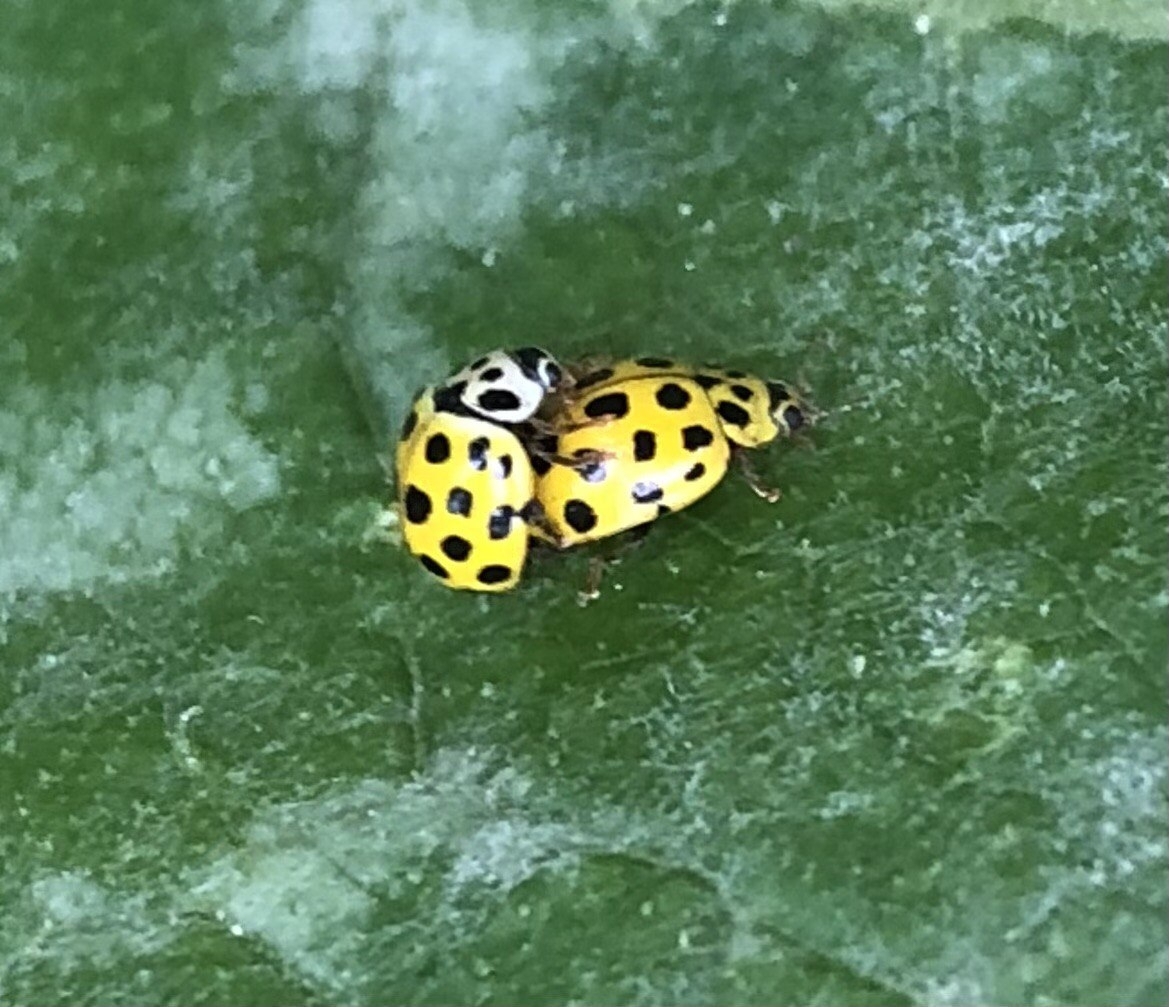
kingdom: Animalia
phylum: Arthropoda
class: Insecta
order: Coleoptera
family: Coccinellidae
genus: Psyllobora
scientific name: Psyllobora vigintiduopunctata
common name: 22-spot ladybird
